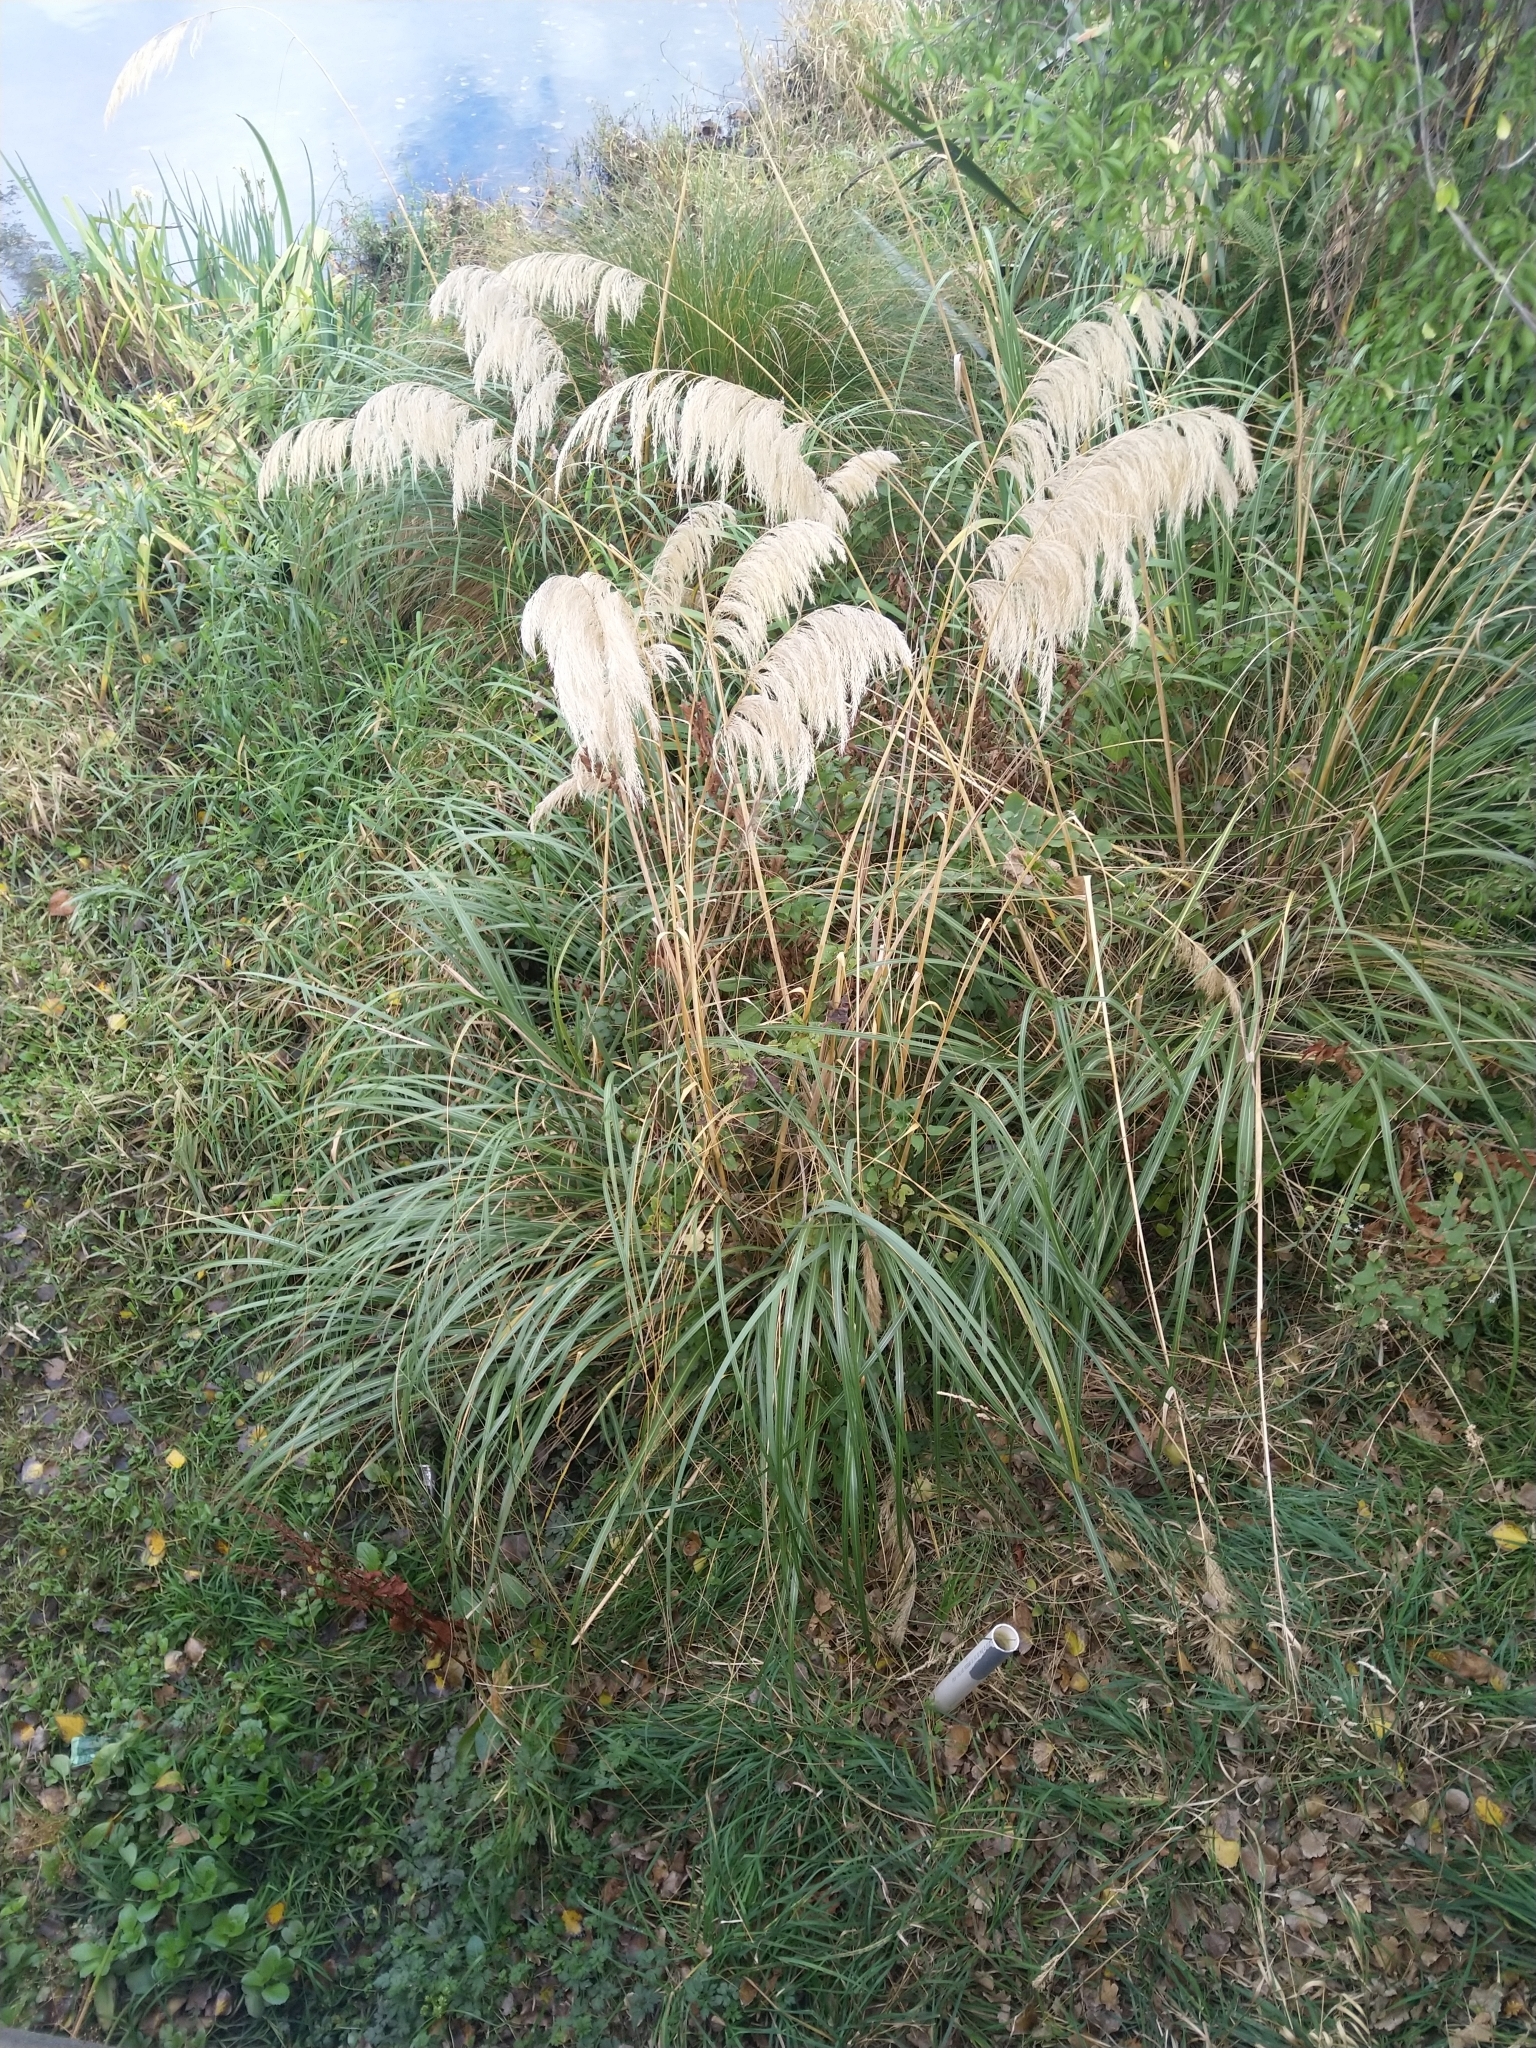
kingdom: Plantae
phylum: Tracheophyta
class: Liliopsida
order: Poales
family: Poaceae
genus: Austroderia
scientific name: Austroderia richardii
